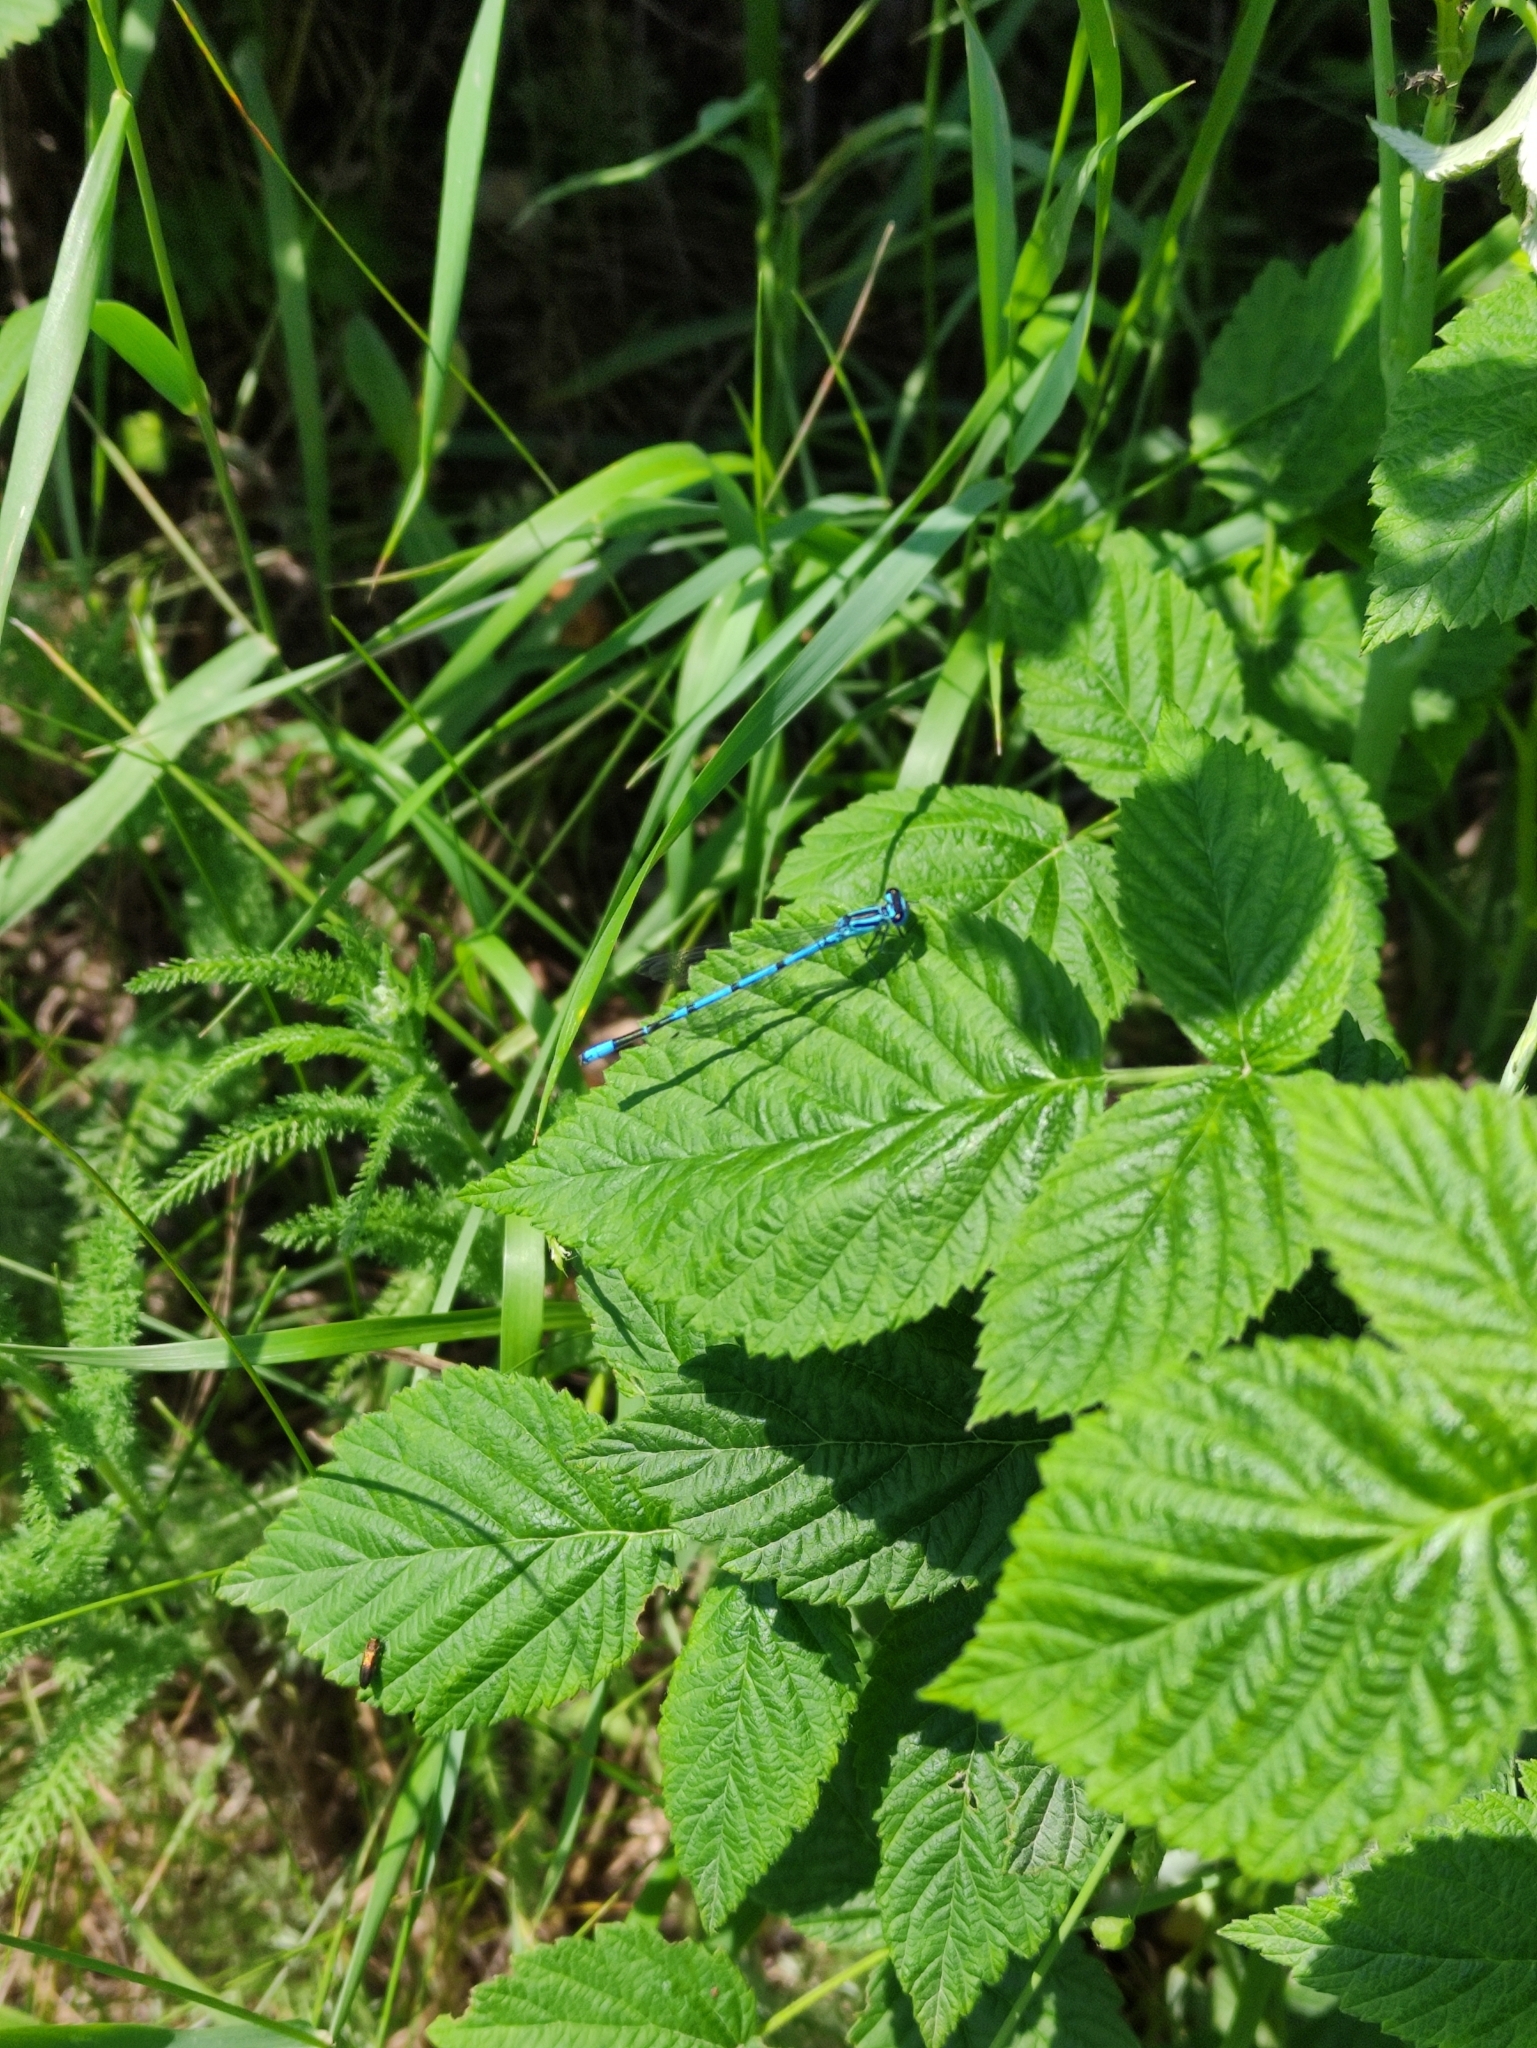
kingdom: Animalia
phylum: Arthropoda
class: Insecta
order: Odonata
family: Coenagrionidae
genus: Coenagrion
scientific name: Coenagrion puella
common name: Azure damselfly
